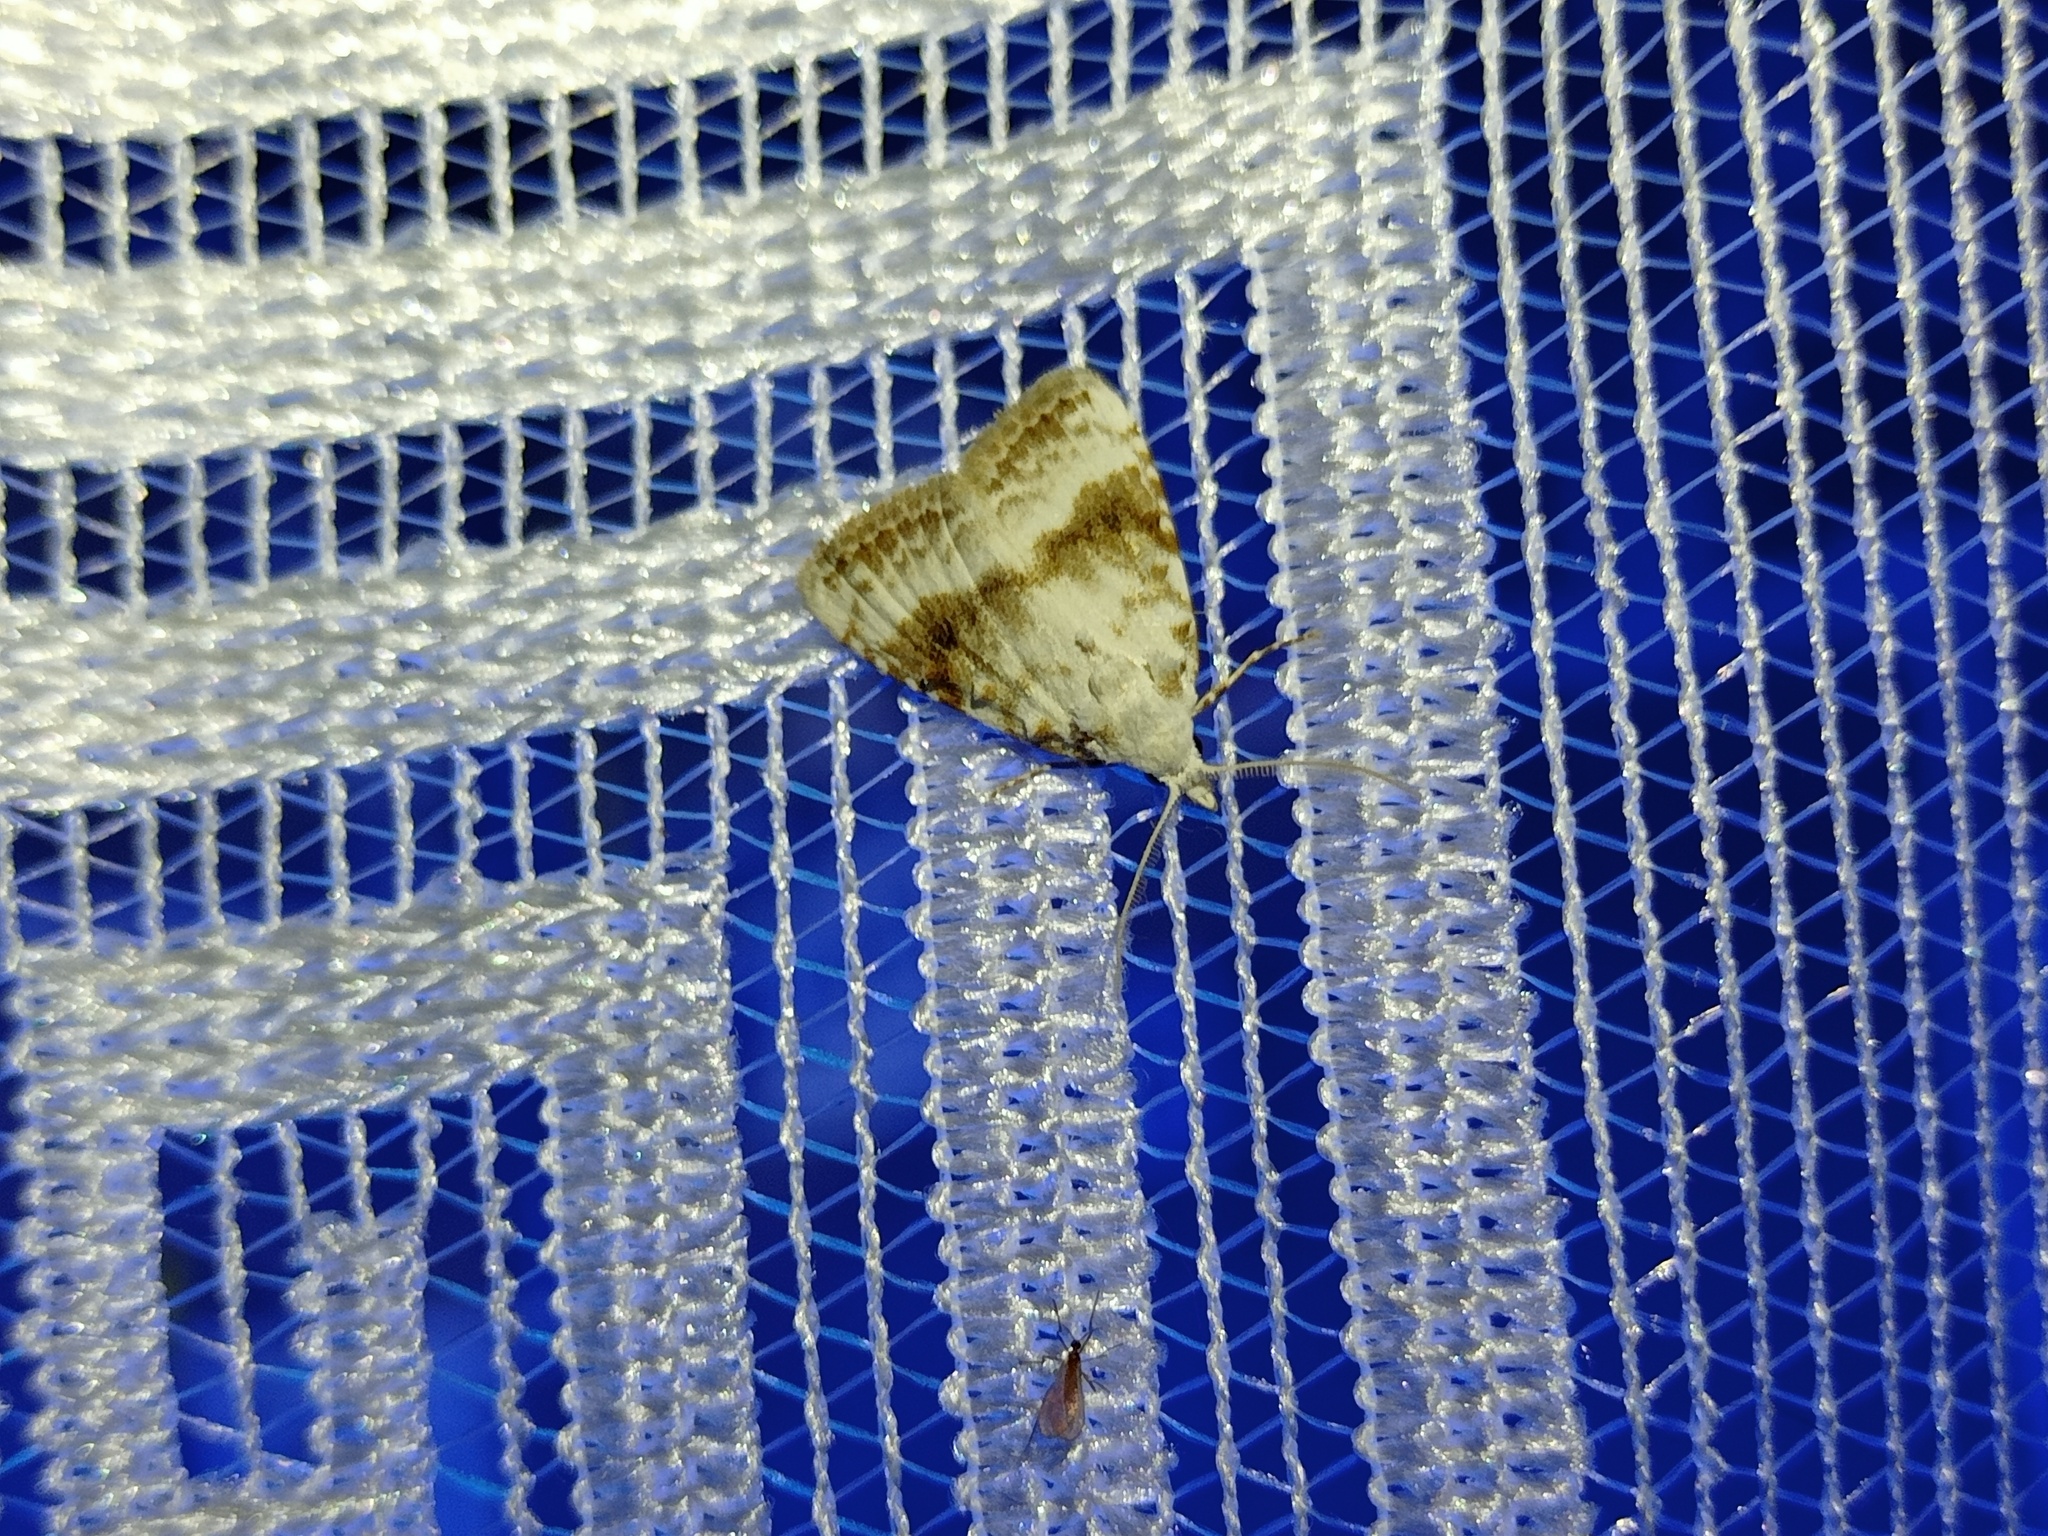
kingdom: Animalia
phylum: Arthropoda
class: Insecta
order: Lepidoptera
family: Nolidae
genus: Meganola
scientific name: Meganola albula
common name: Kent black arches
